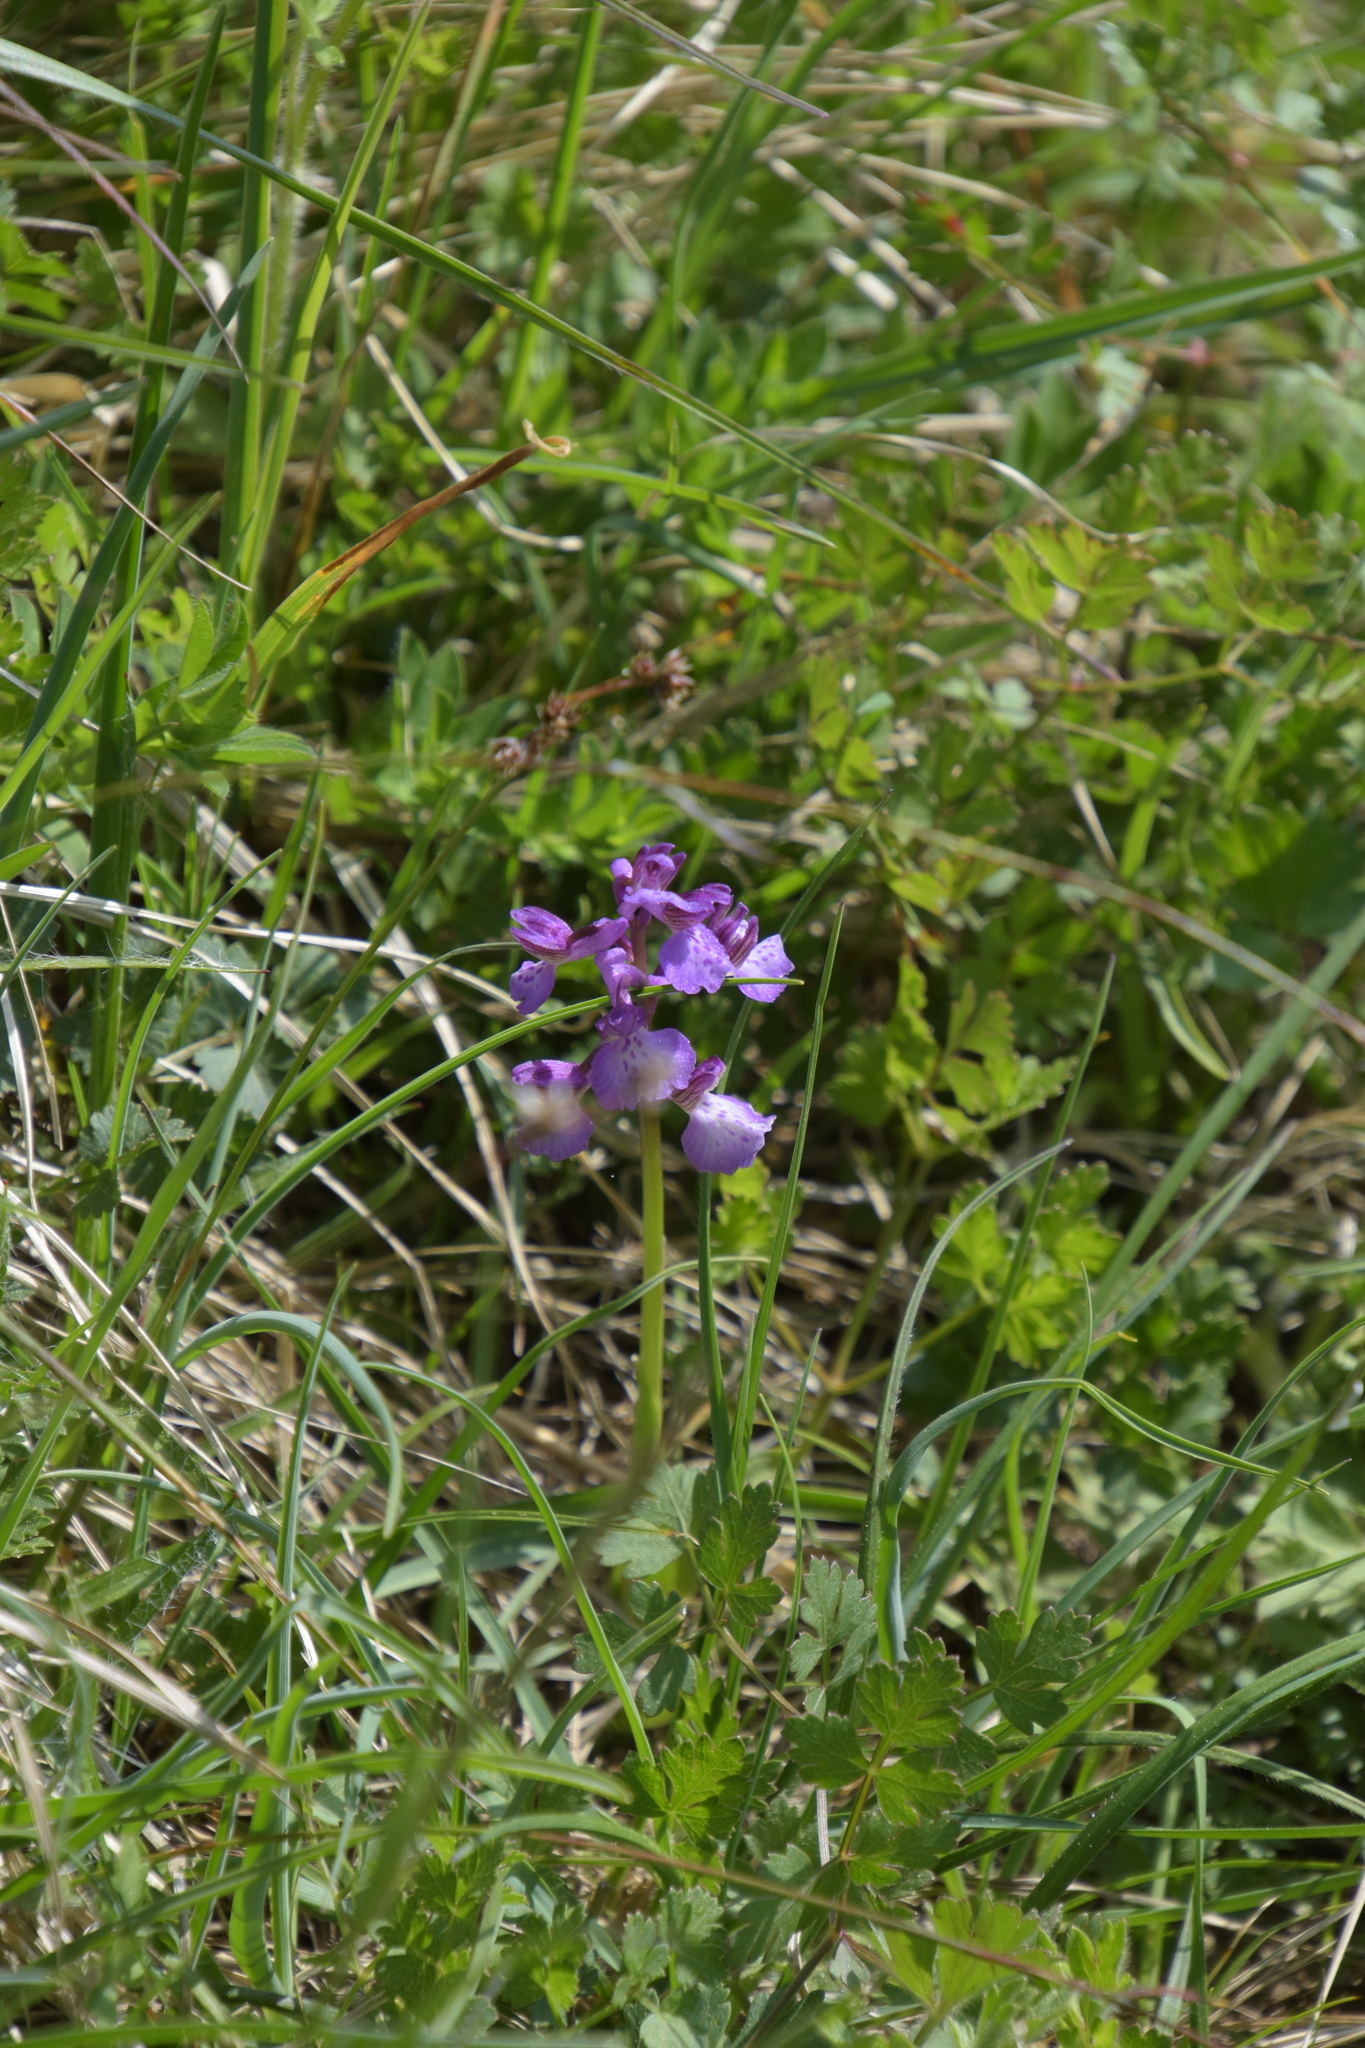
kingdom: Plantae
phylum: Tracheophyta
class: Liliopsida
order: Asparagales
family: Orchidaceae
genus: Anacamptis
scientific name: Anacamptis morio
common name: Green-winged orchid
